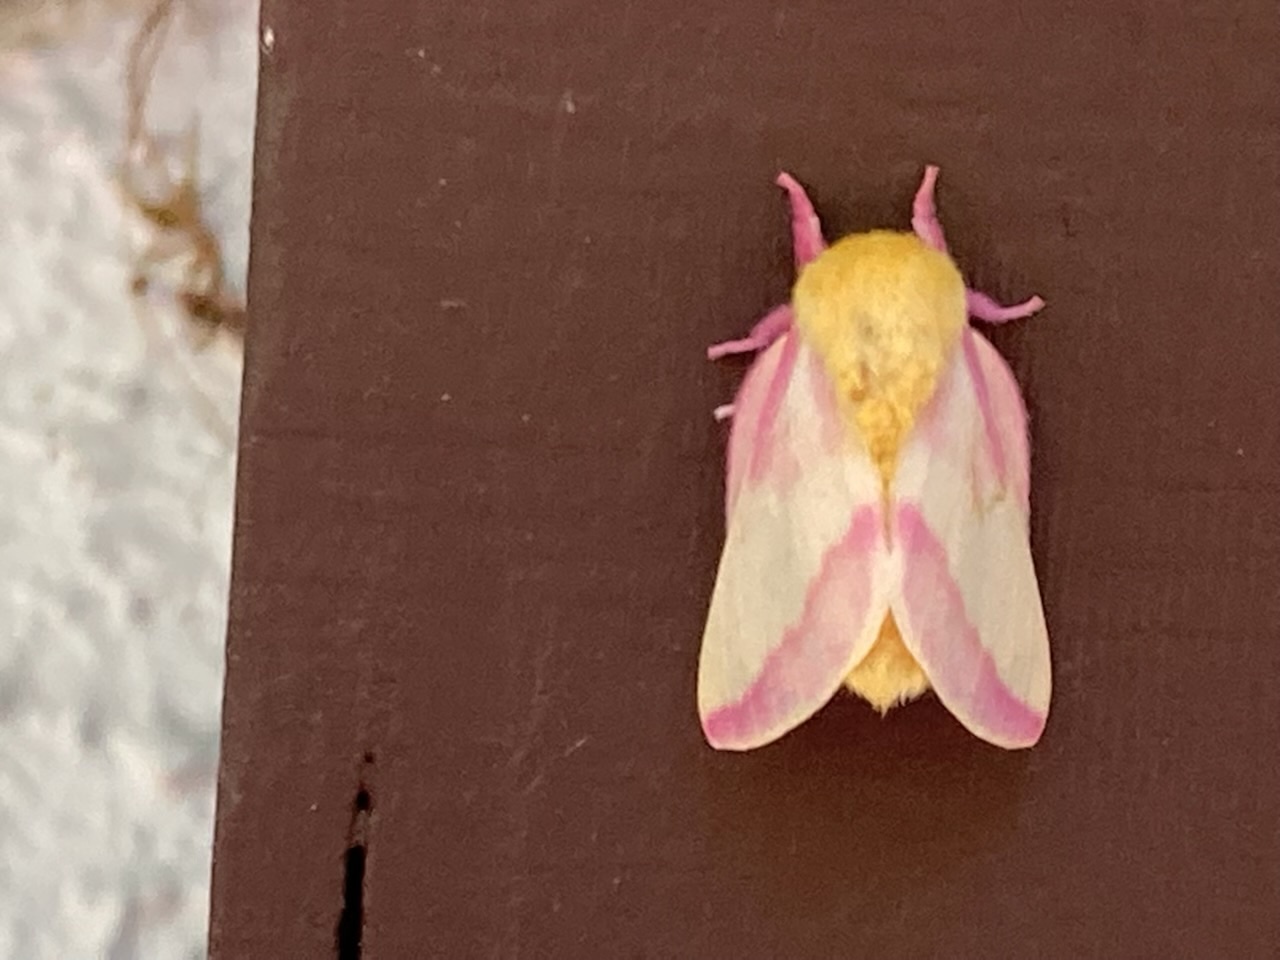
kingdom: Animalia
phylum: Arthropoda
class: Insecta
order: Lepidoptera
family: Saturniidae
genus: Dryocampa
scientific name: Dryocampa rubicunda
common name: Rosy maple moth
